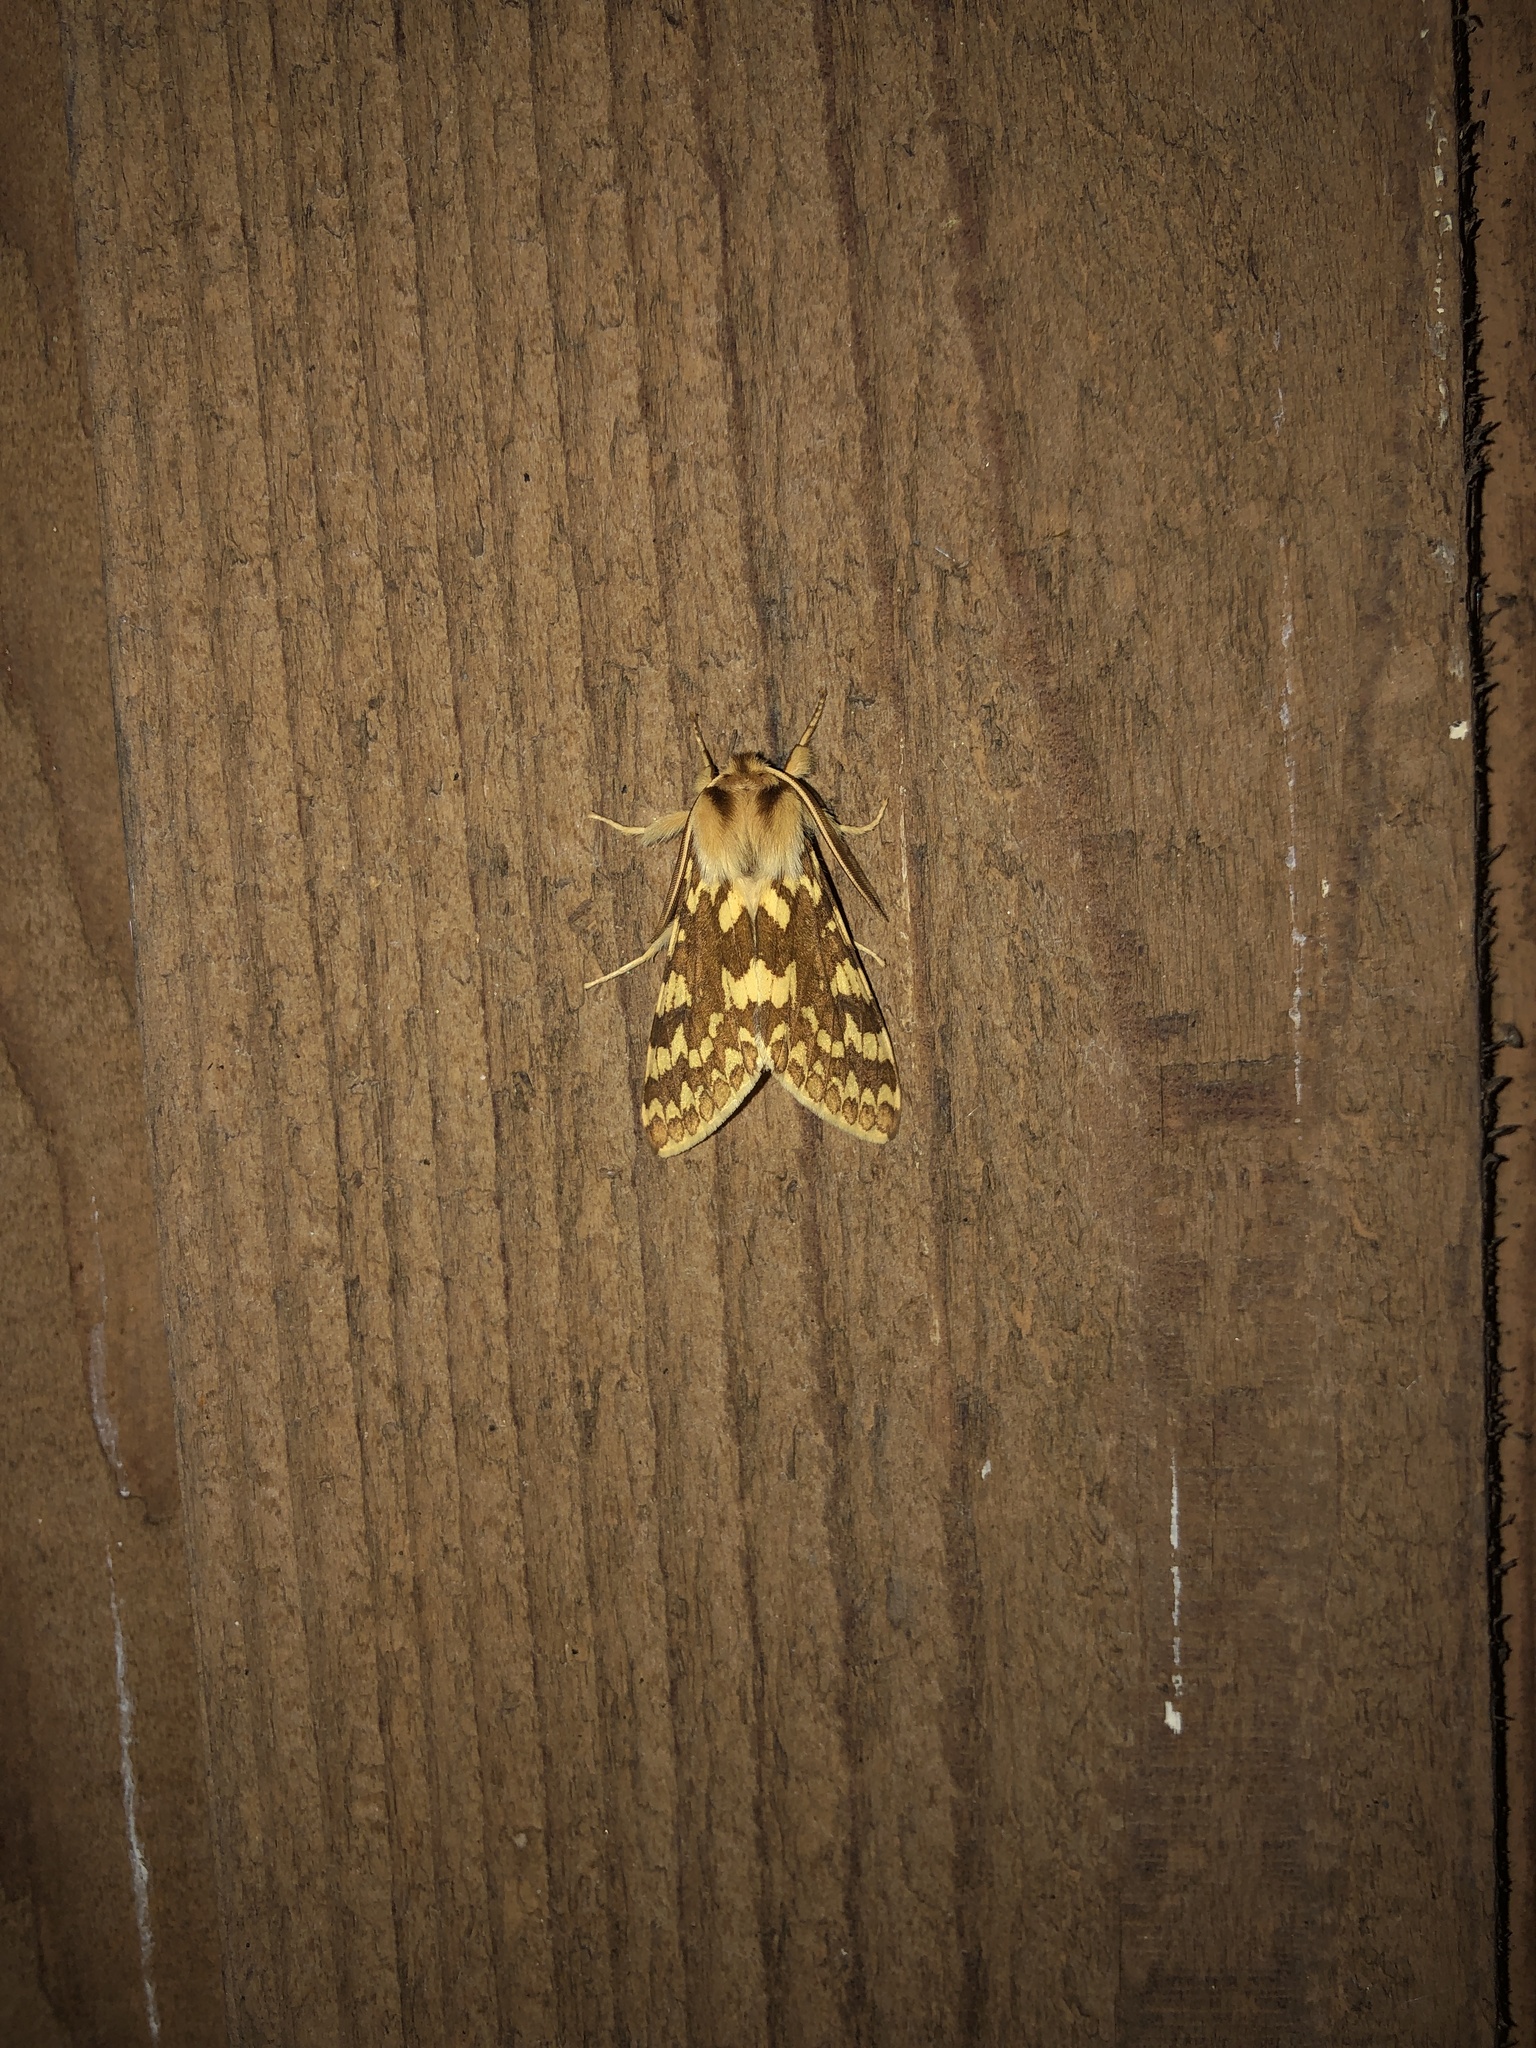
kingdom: Animalia
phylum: Arthropoda
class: Insecta
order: Lepidoptera
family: Erebidae
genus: Lophocampa
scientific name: Lophocampa maculata
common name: Spotted tussock moth
